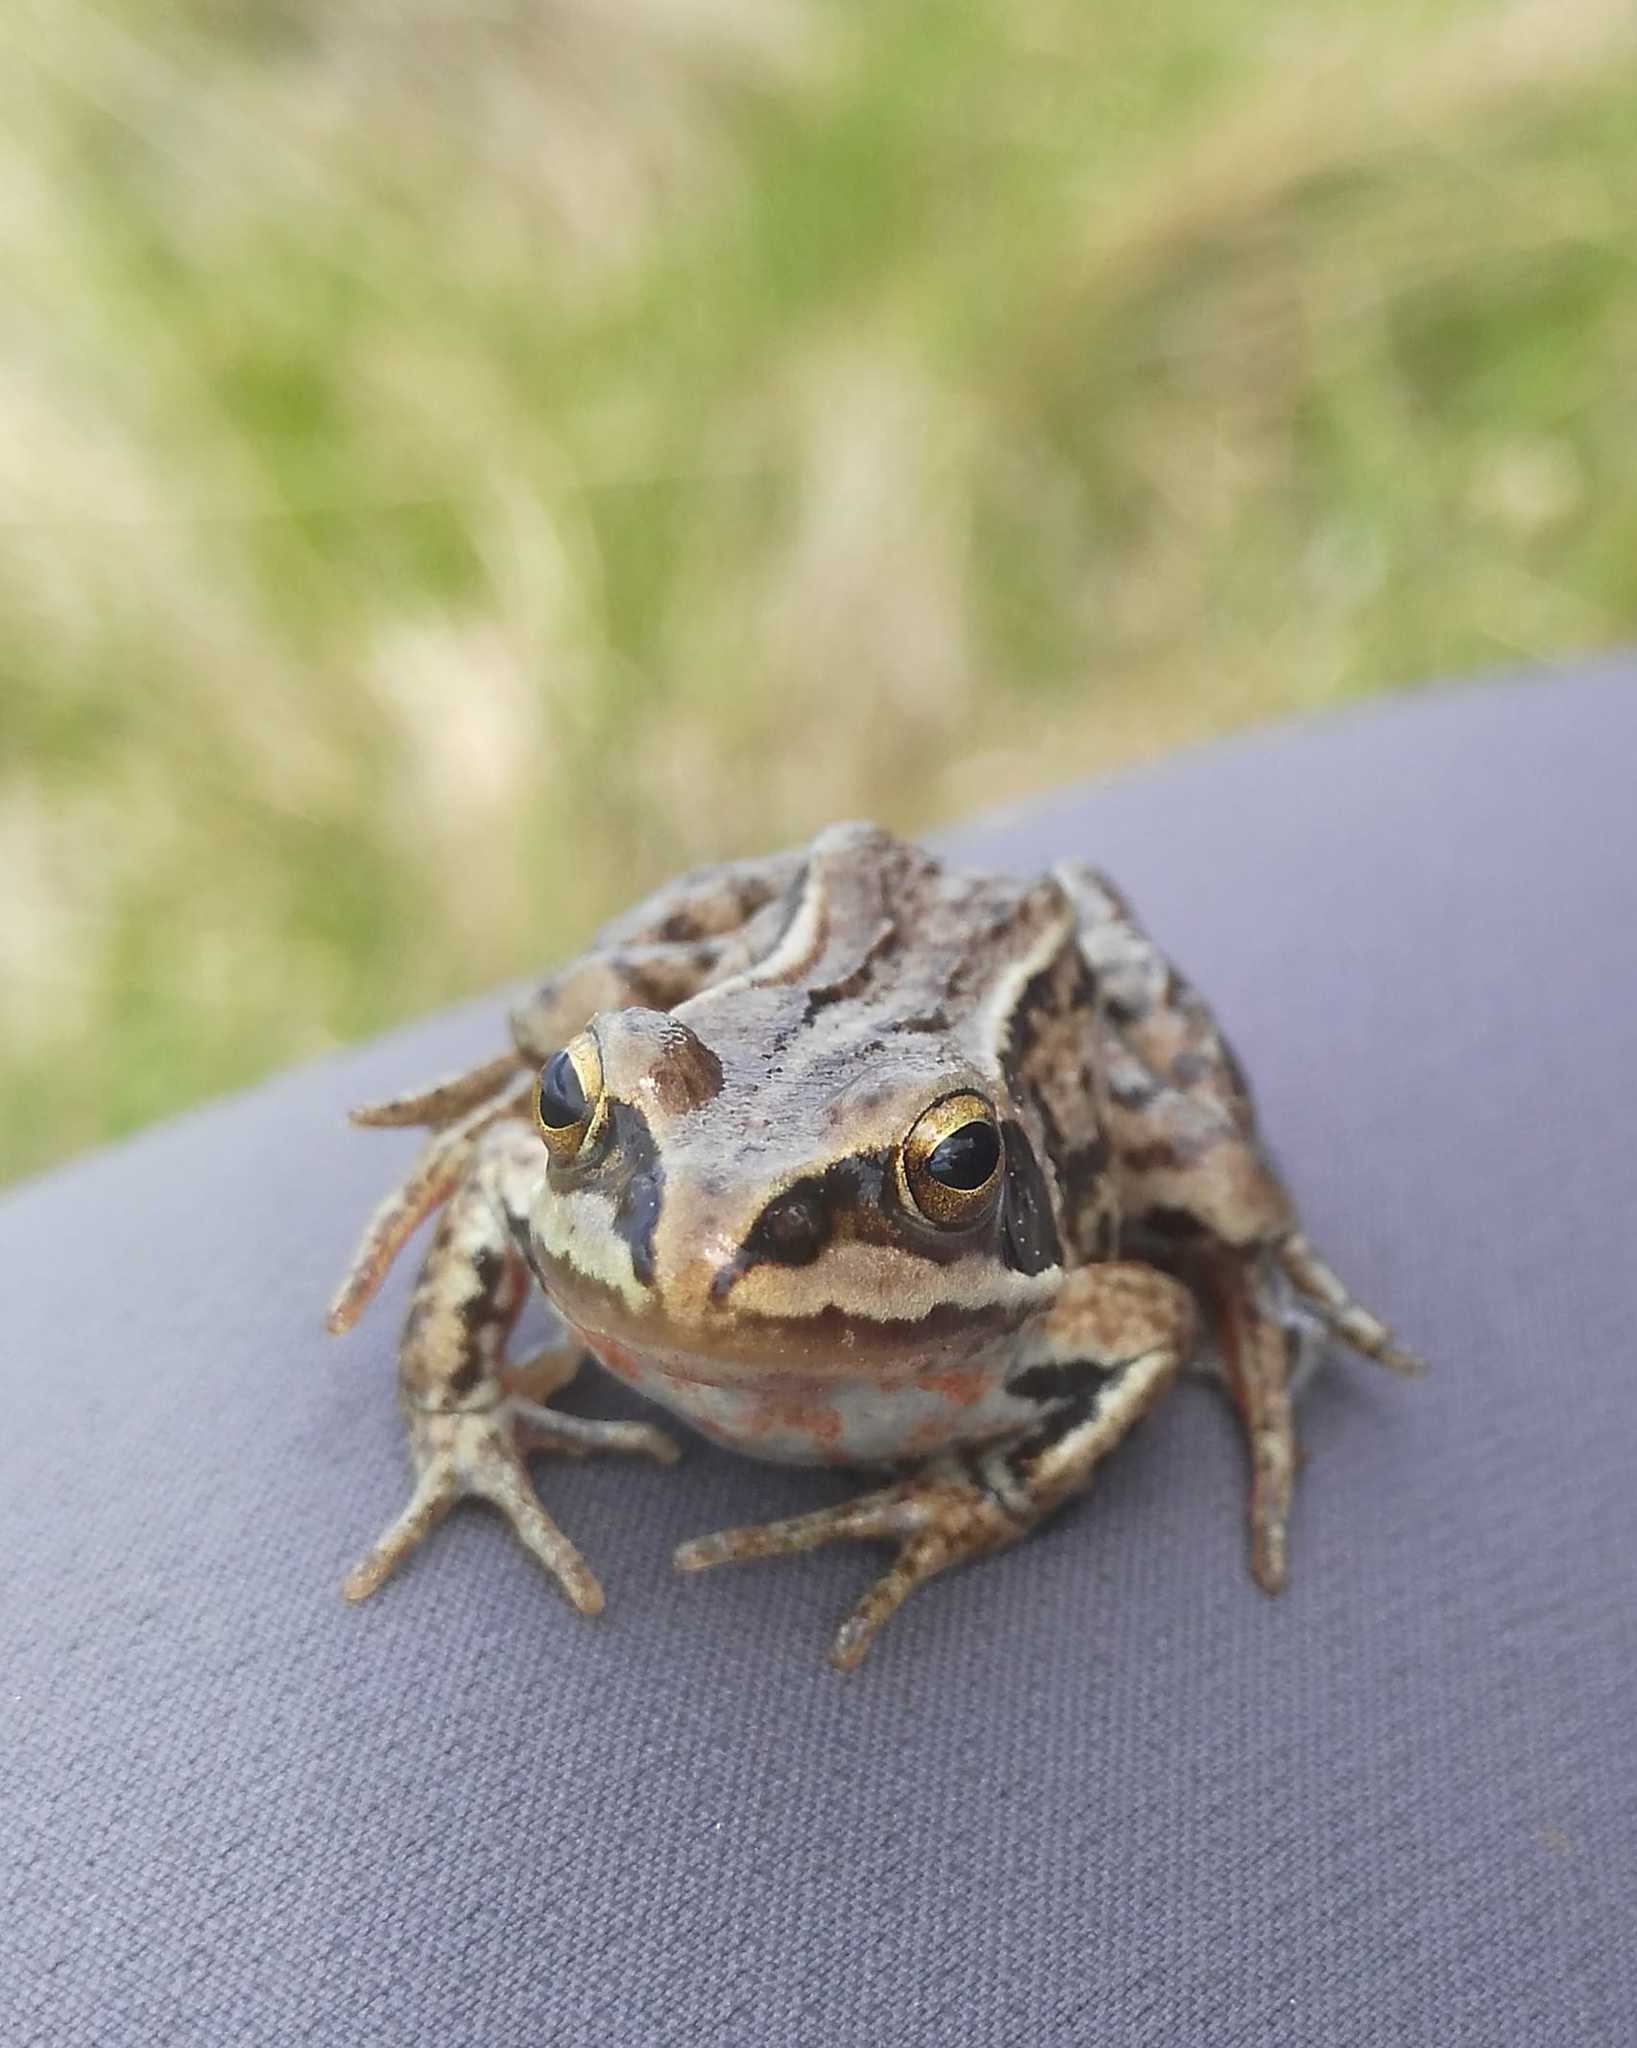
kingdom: Animalia
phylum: Chordata
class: Amphibia
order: Anura
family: Ranidae
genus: Rana
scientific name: Rana amurensis
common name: Amur brown frog
